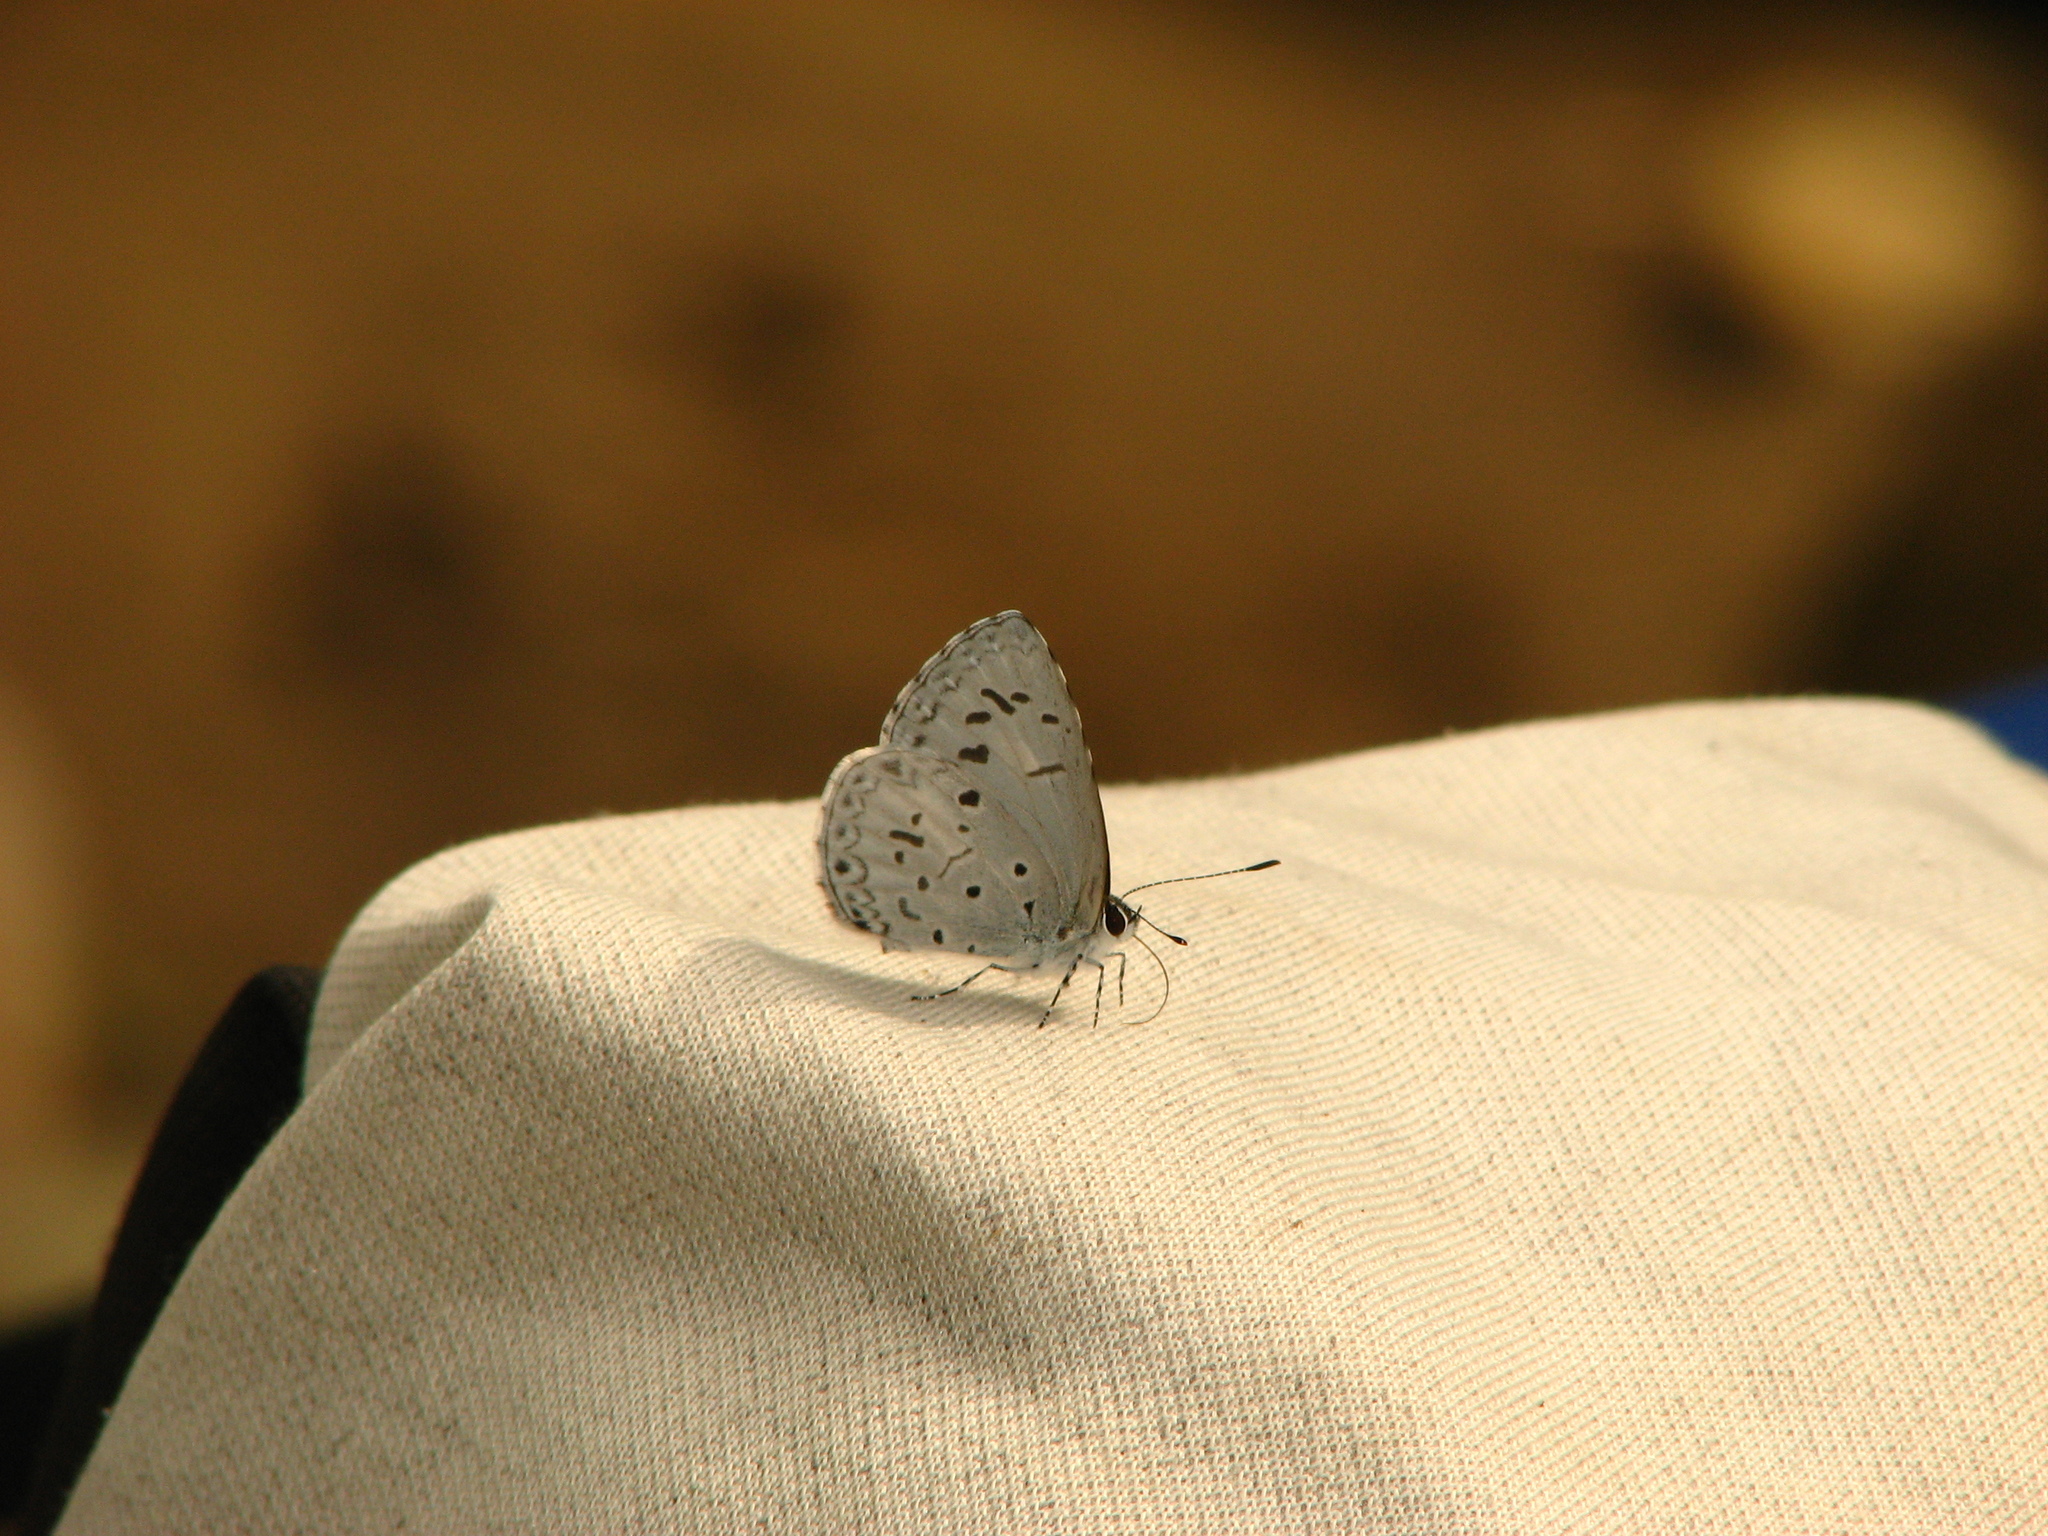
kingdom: Animalia
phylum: Arthropoda
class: Insecta
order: Lepidoptera
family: Lycaenidae
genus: Acytolepis
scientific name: Acytolepis puspa
